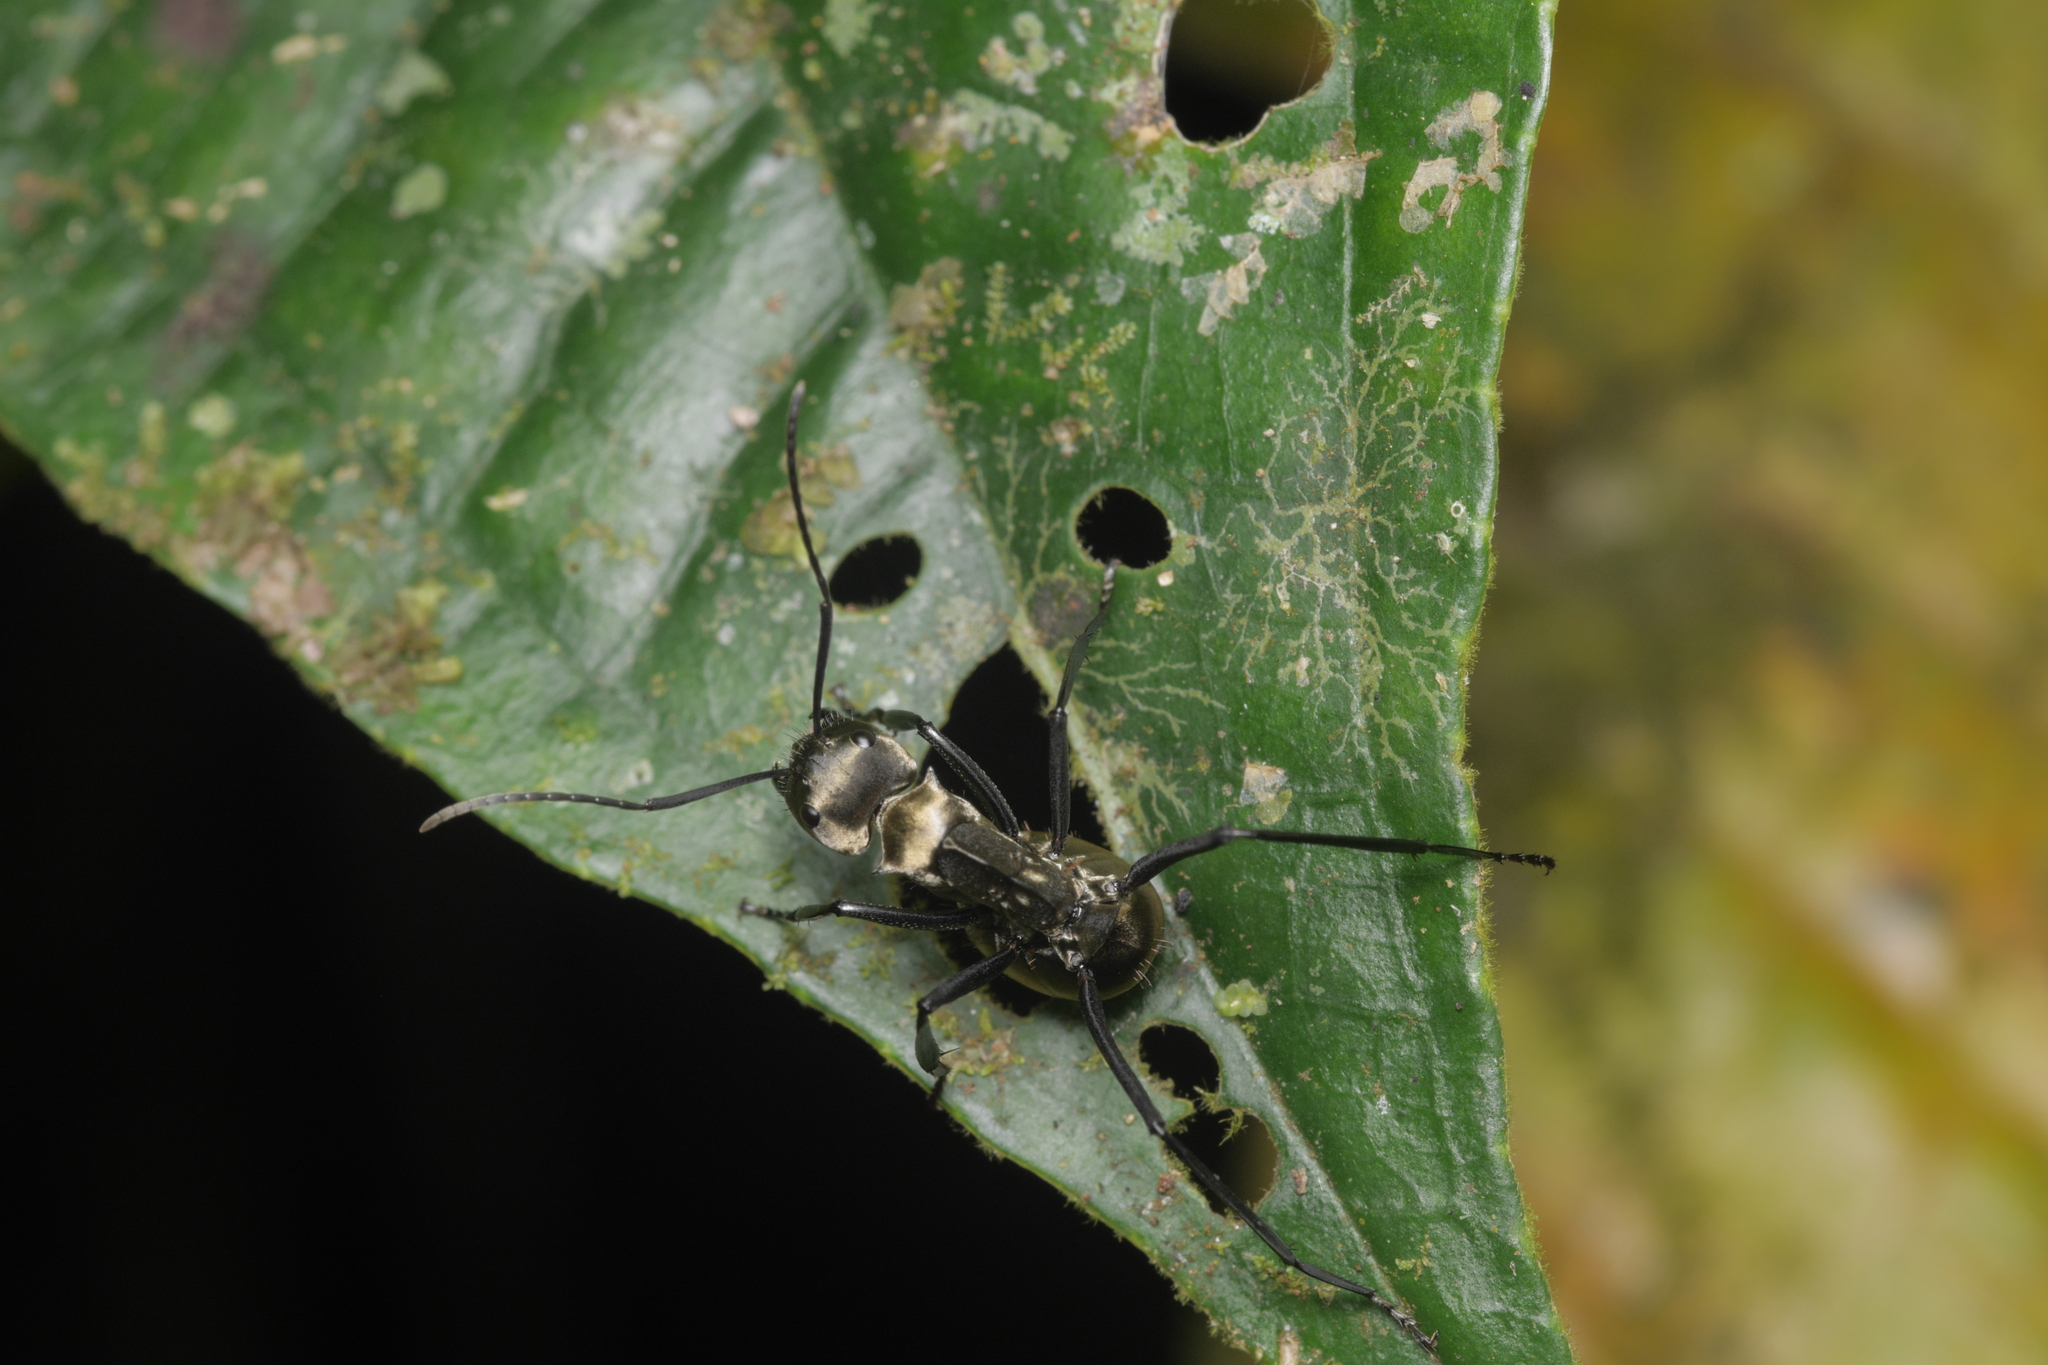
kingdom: Animalia
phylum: Arthropoda
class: Insecta
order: Hymenoptera
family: Formicidae
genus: Camponotus
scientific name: Camponotus sericeiventris
